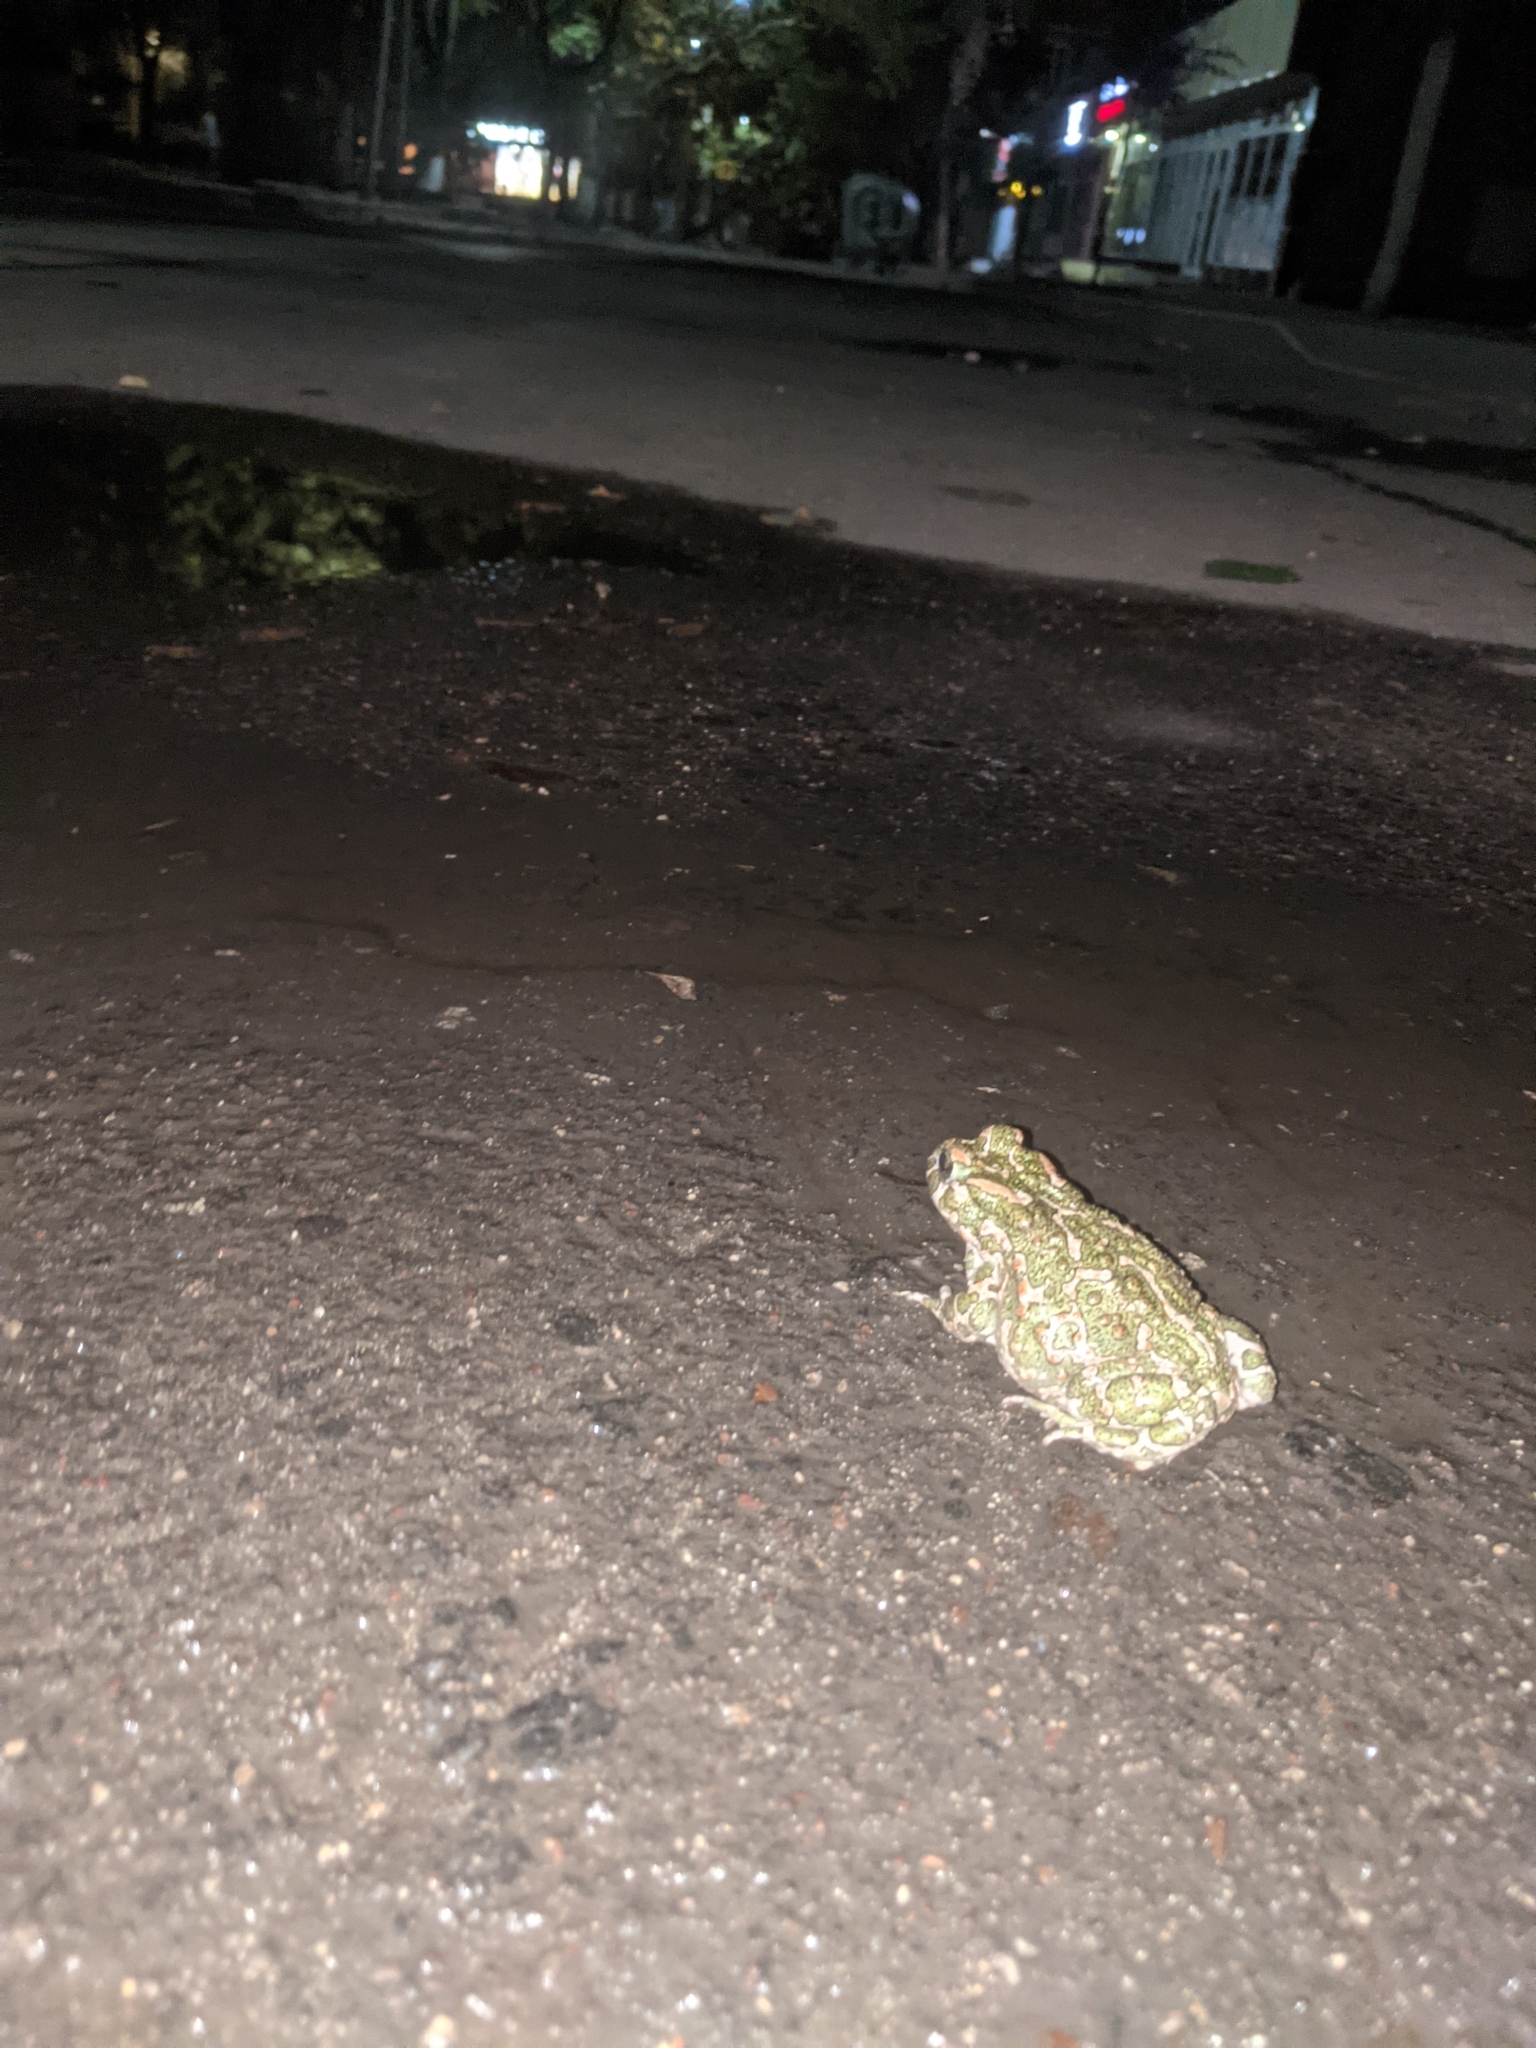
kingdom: Animalia
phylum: Chordata
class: Amphibia
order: Anura
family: Bufonidae
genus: Bufotes
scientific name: Bufotes viridis
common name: European green toad
